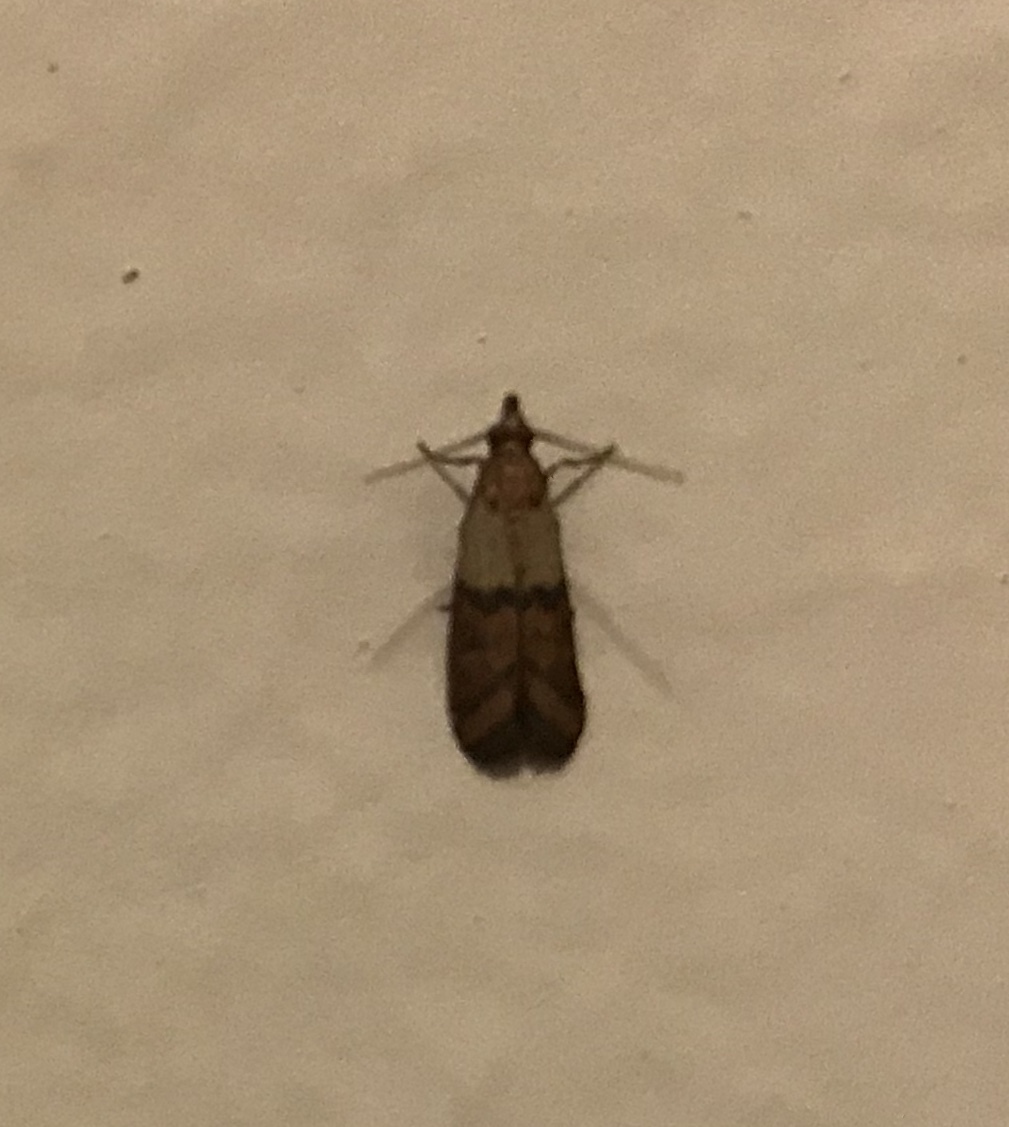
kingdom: Animalia
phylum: Arthropoda
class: Insecta
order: Lepidoptera
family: Pyralidae
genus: Plodia
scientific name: Plodia interpunctella
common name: Indian meal moth
